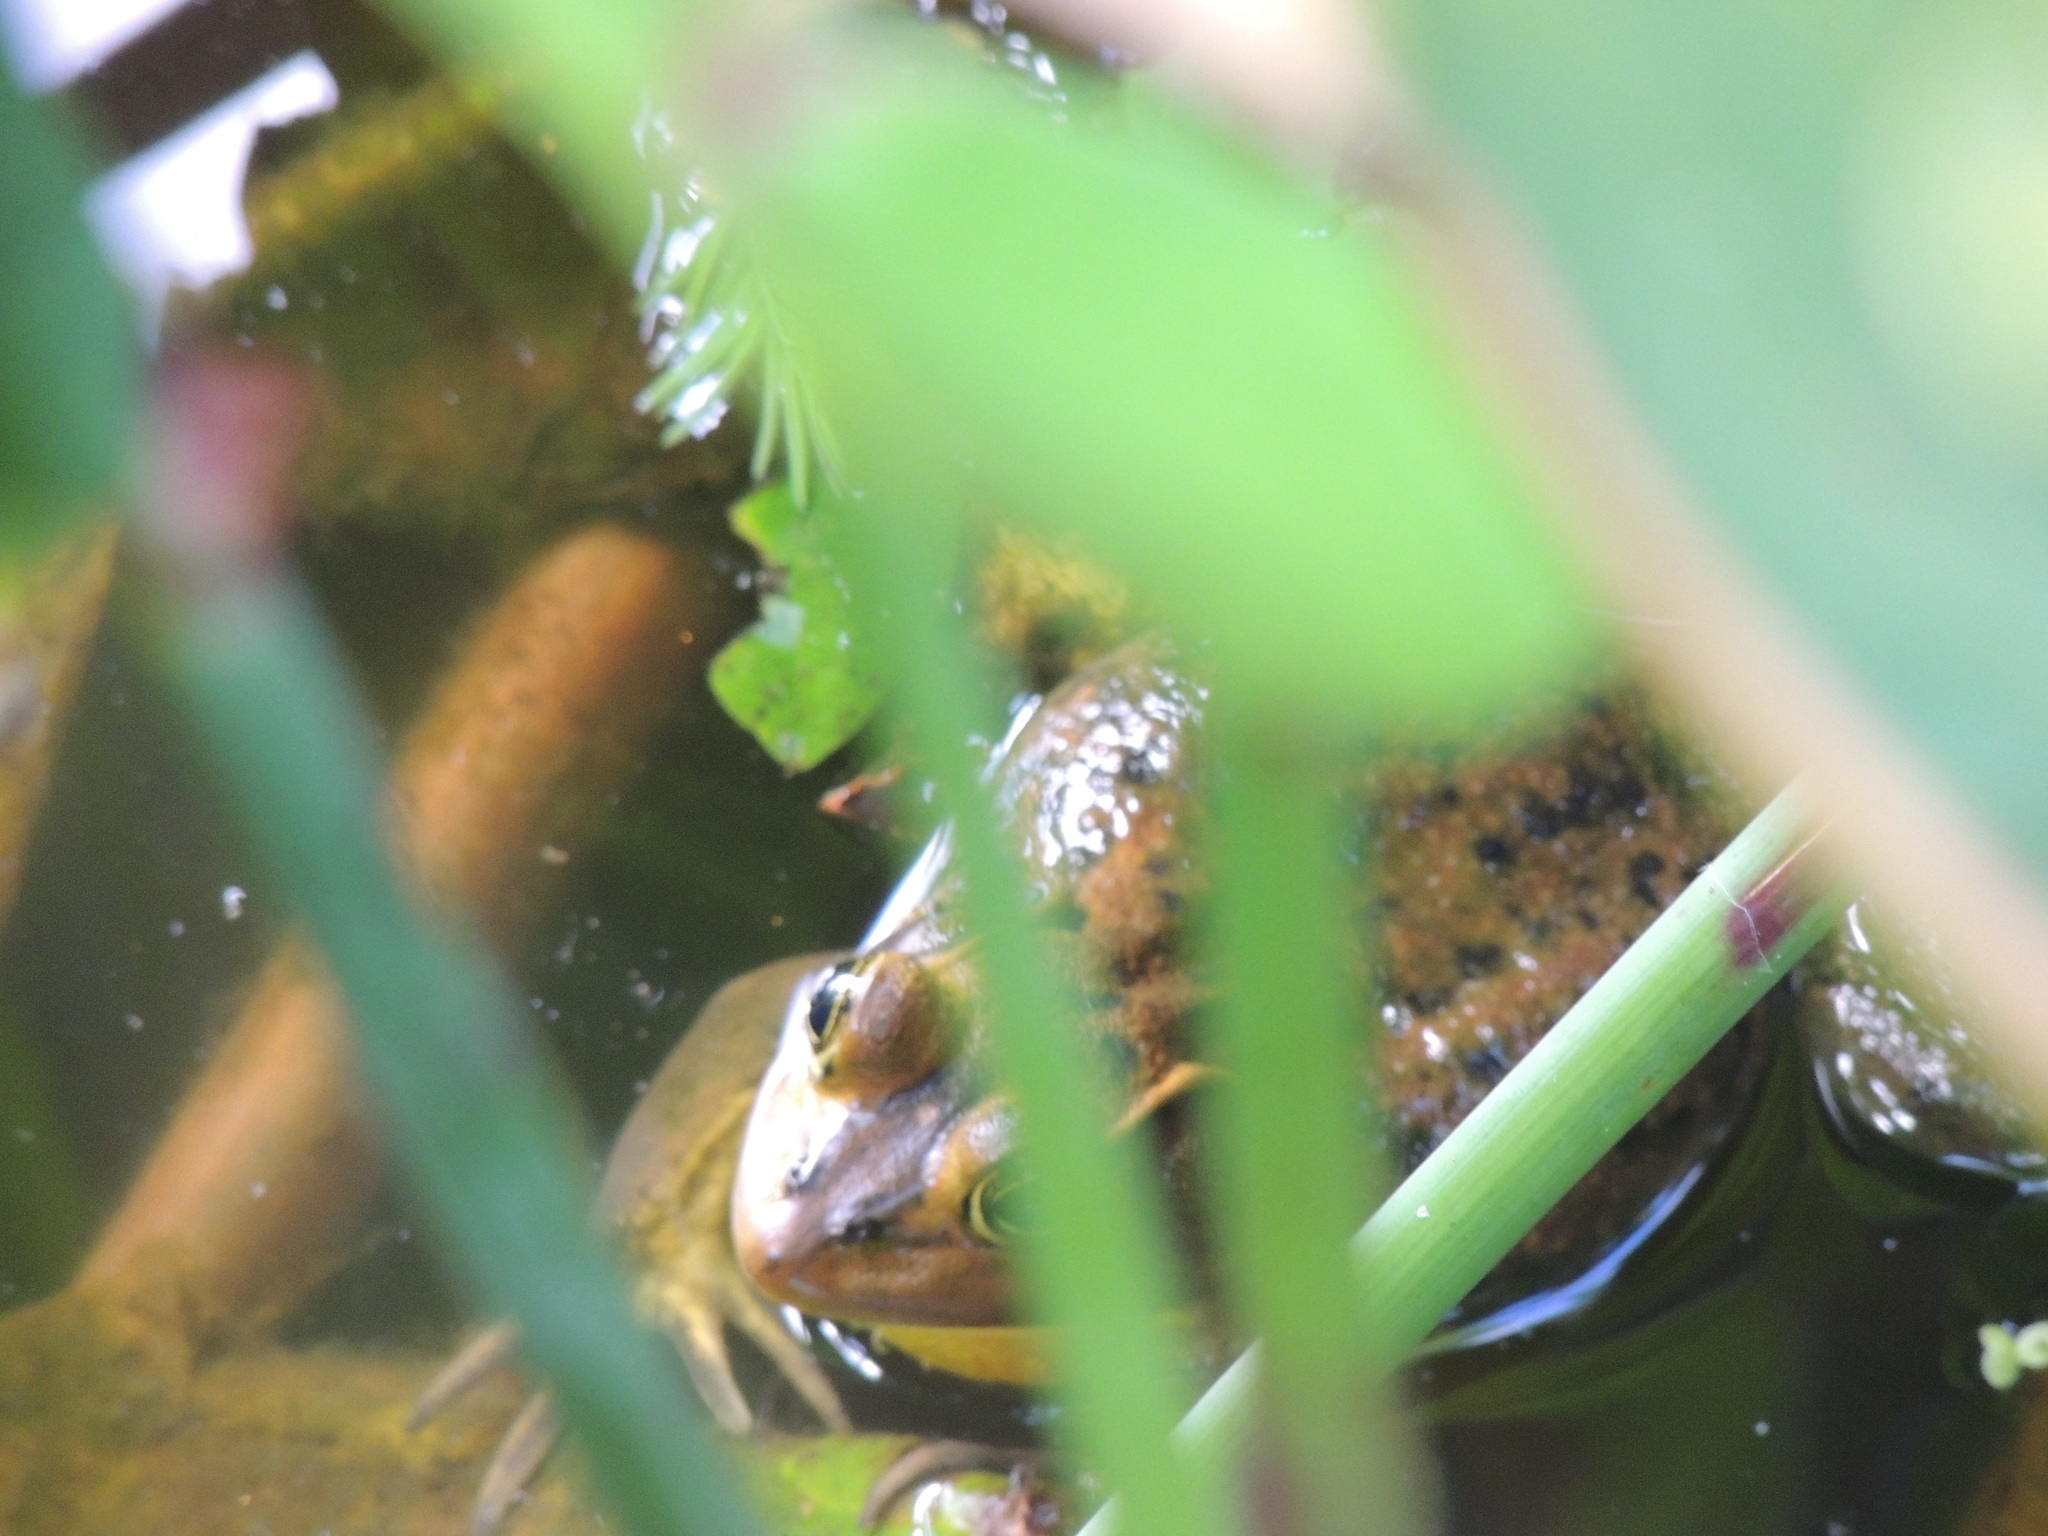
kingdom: Animalia
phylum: Chordata
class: Amphibia
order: Anura
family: Ranidae
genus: Lithobates
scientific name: Lithobates grylio
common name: Pig frog
